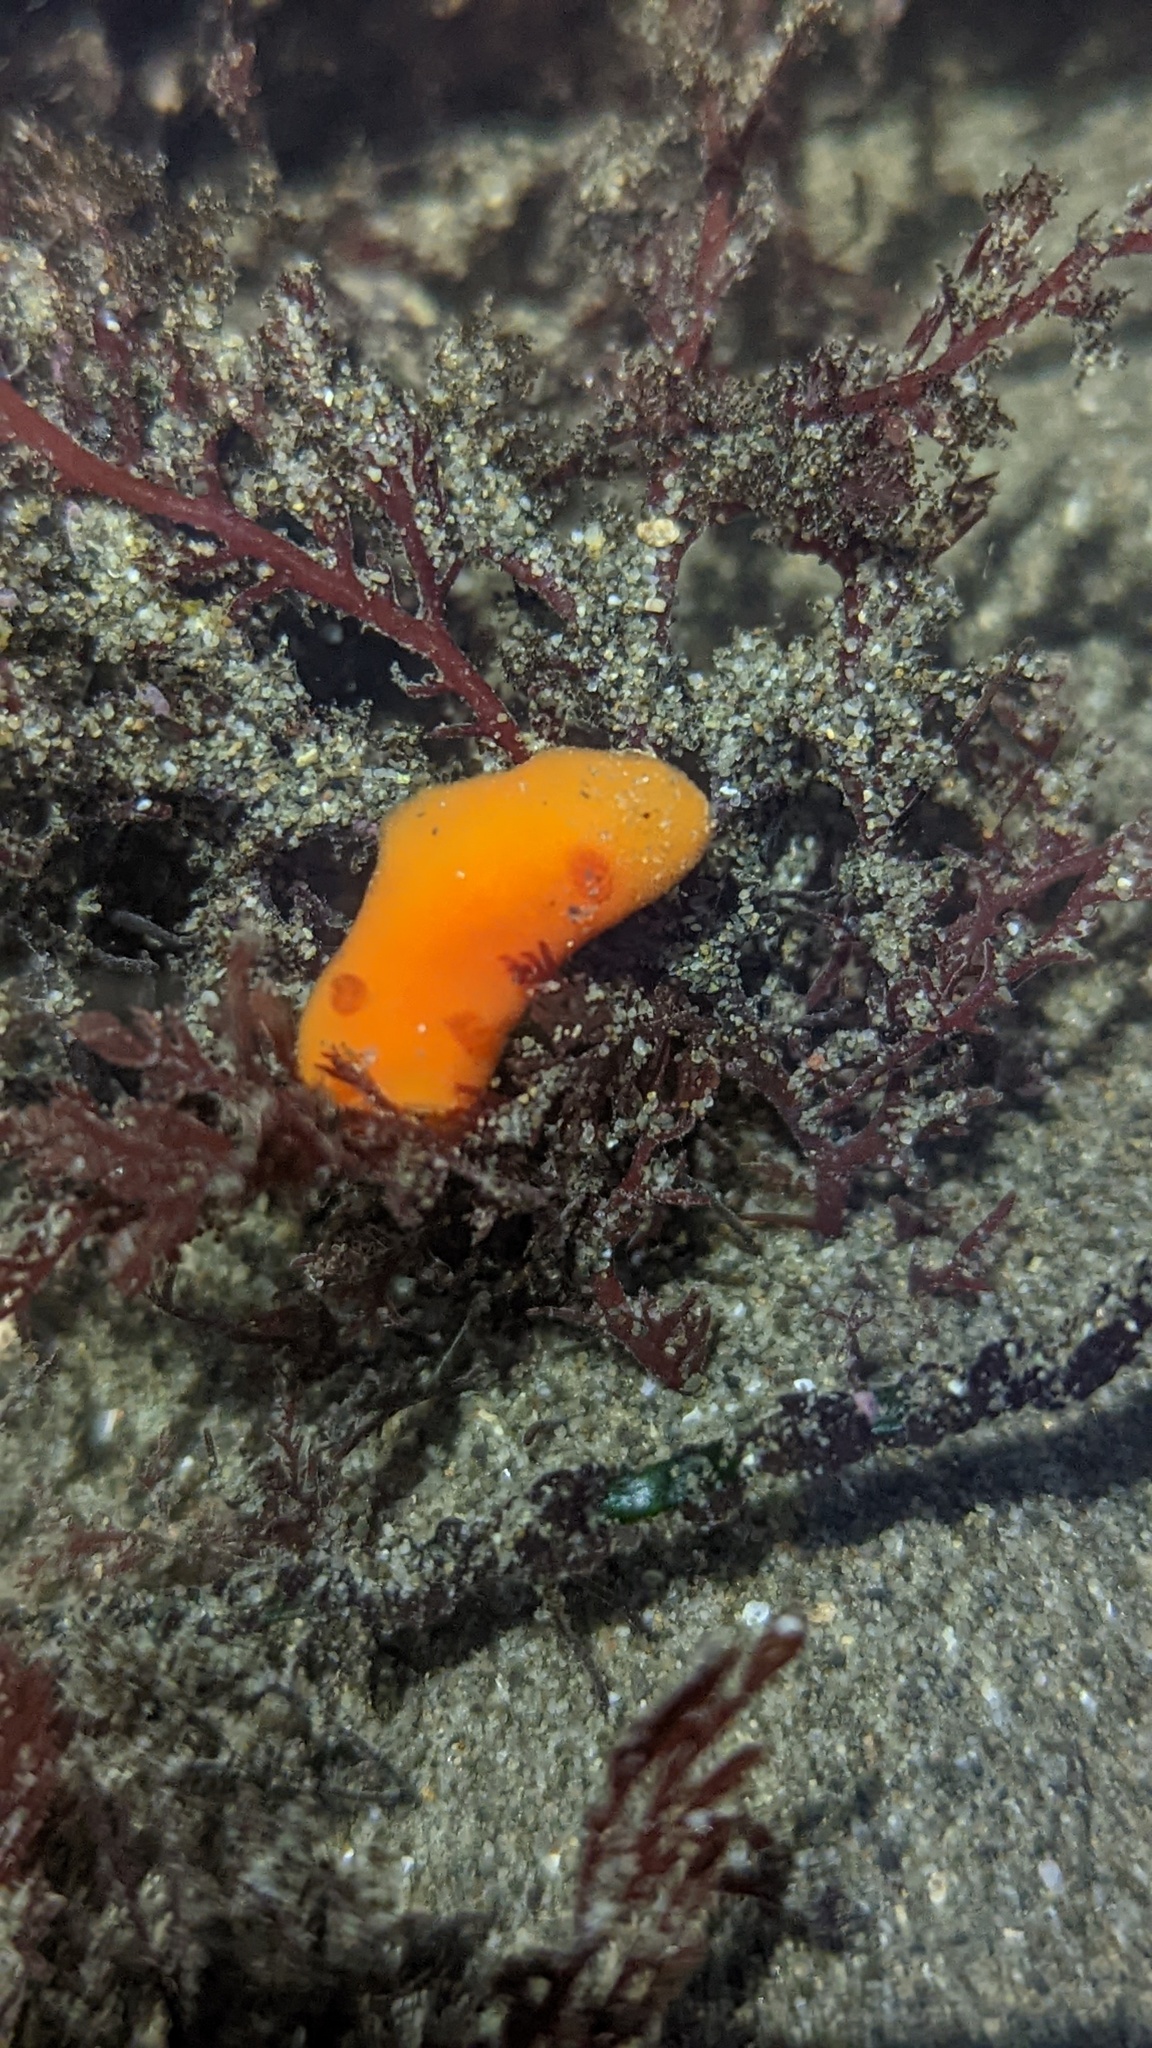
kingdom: Animalia
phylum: Mollusca
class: Gastropoda
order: Nudibranchia
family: Discodorididae
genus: Rostanga
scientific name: Rostanga pulchra
